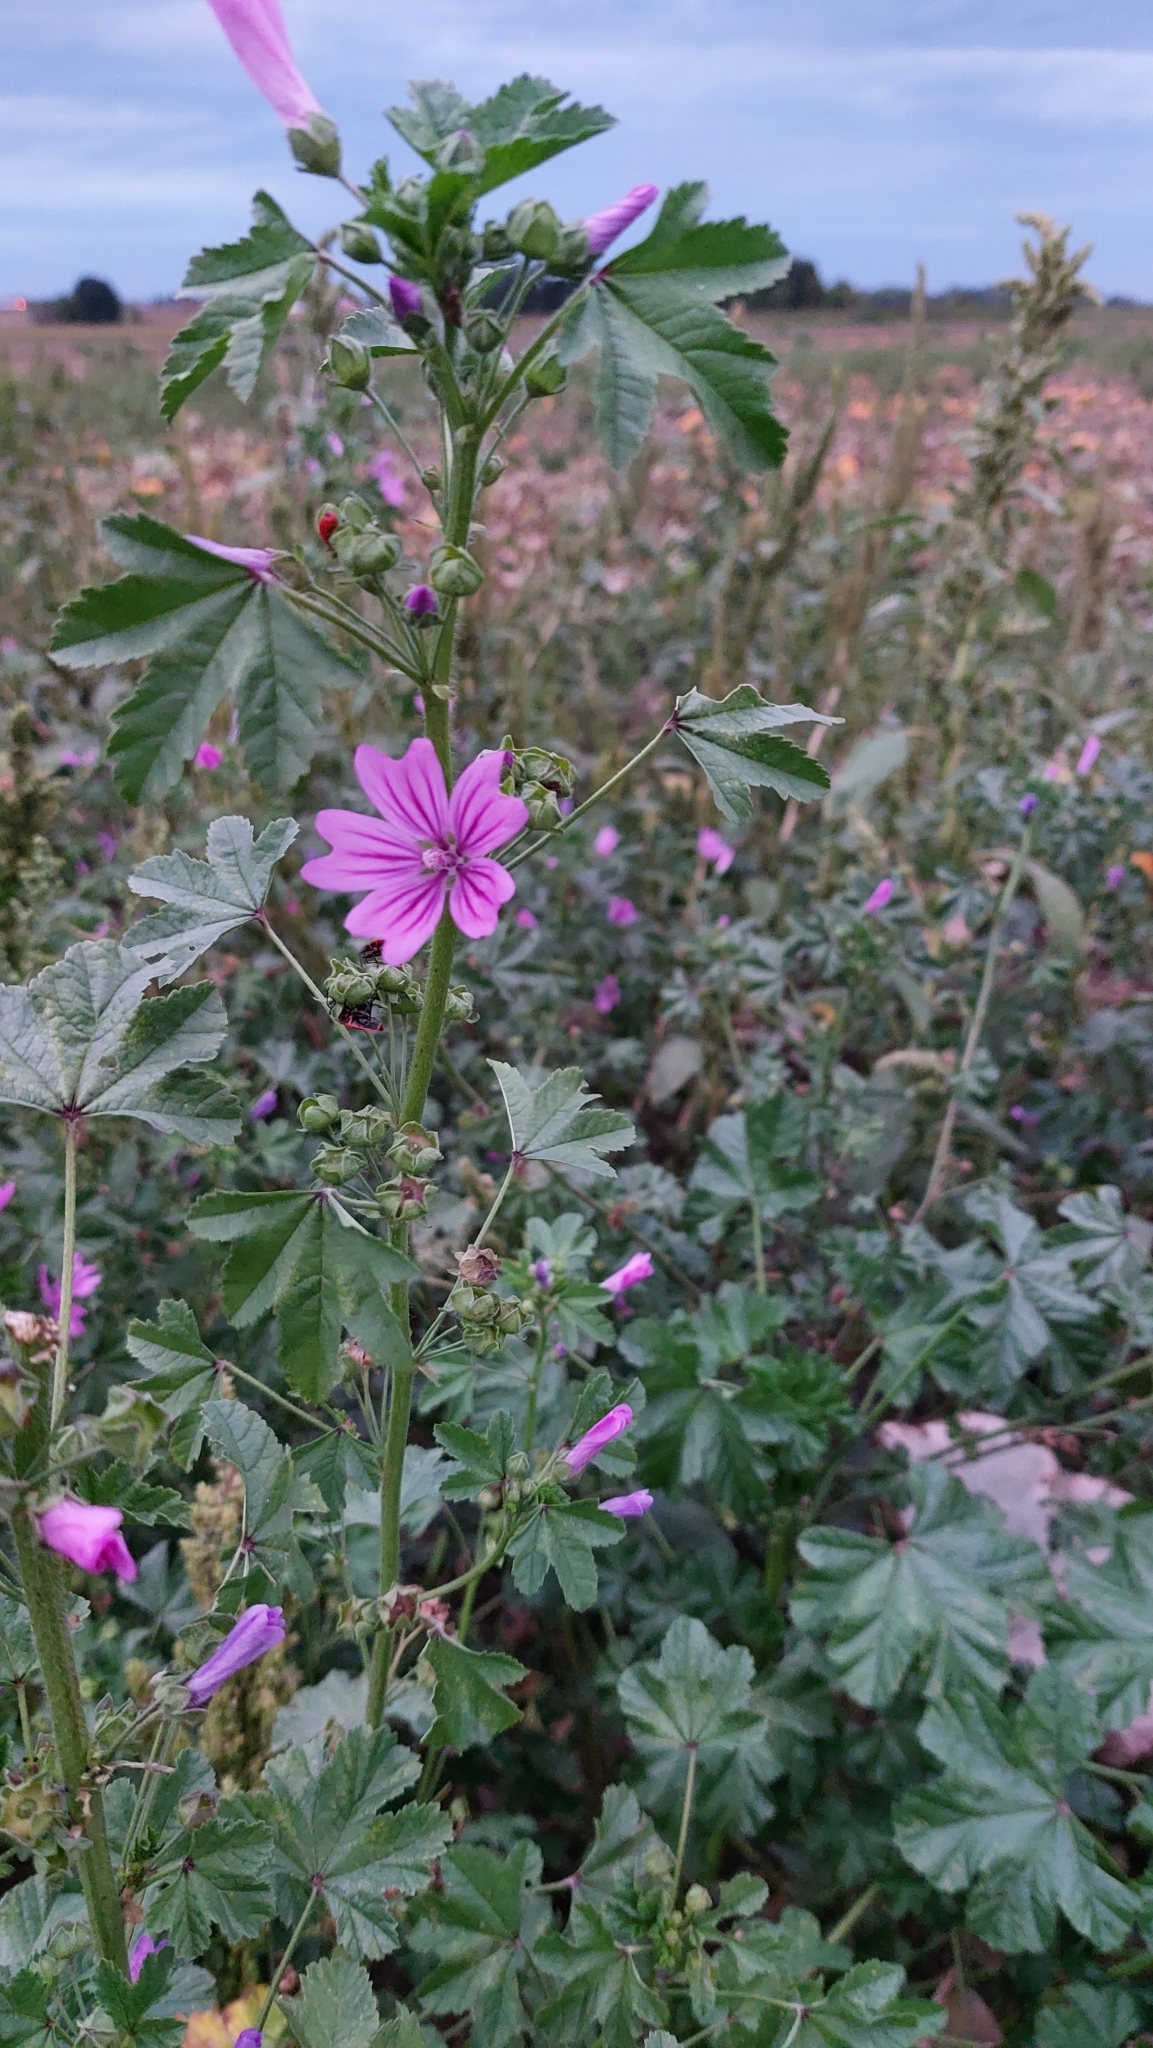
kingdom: Plantae
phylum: Tracheophyta
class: Magnoliopsida
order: Malvales
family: Malvaceae
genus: Malva
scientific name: Malva sylvestris
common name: Common mallow
